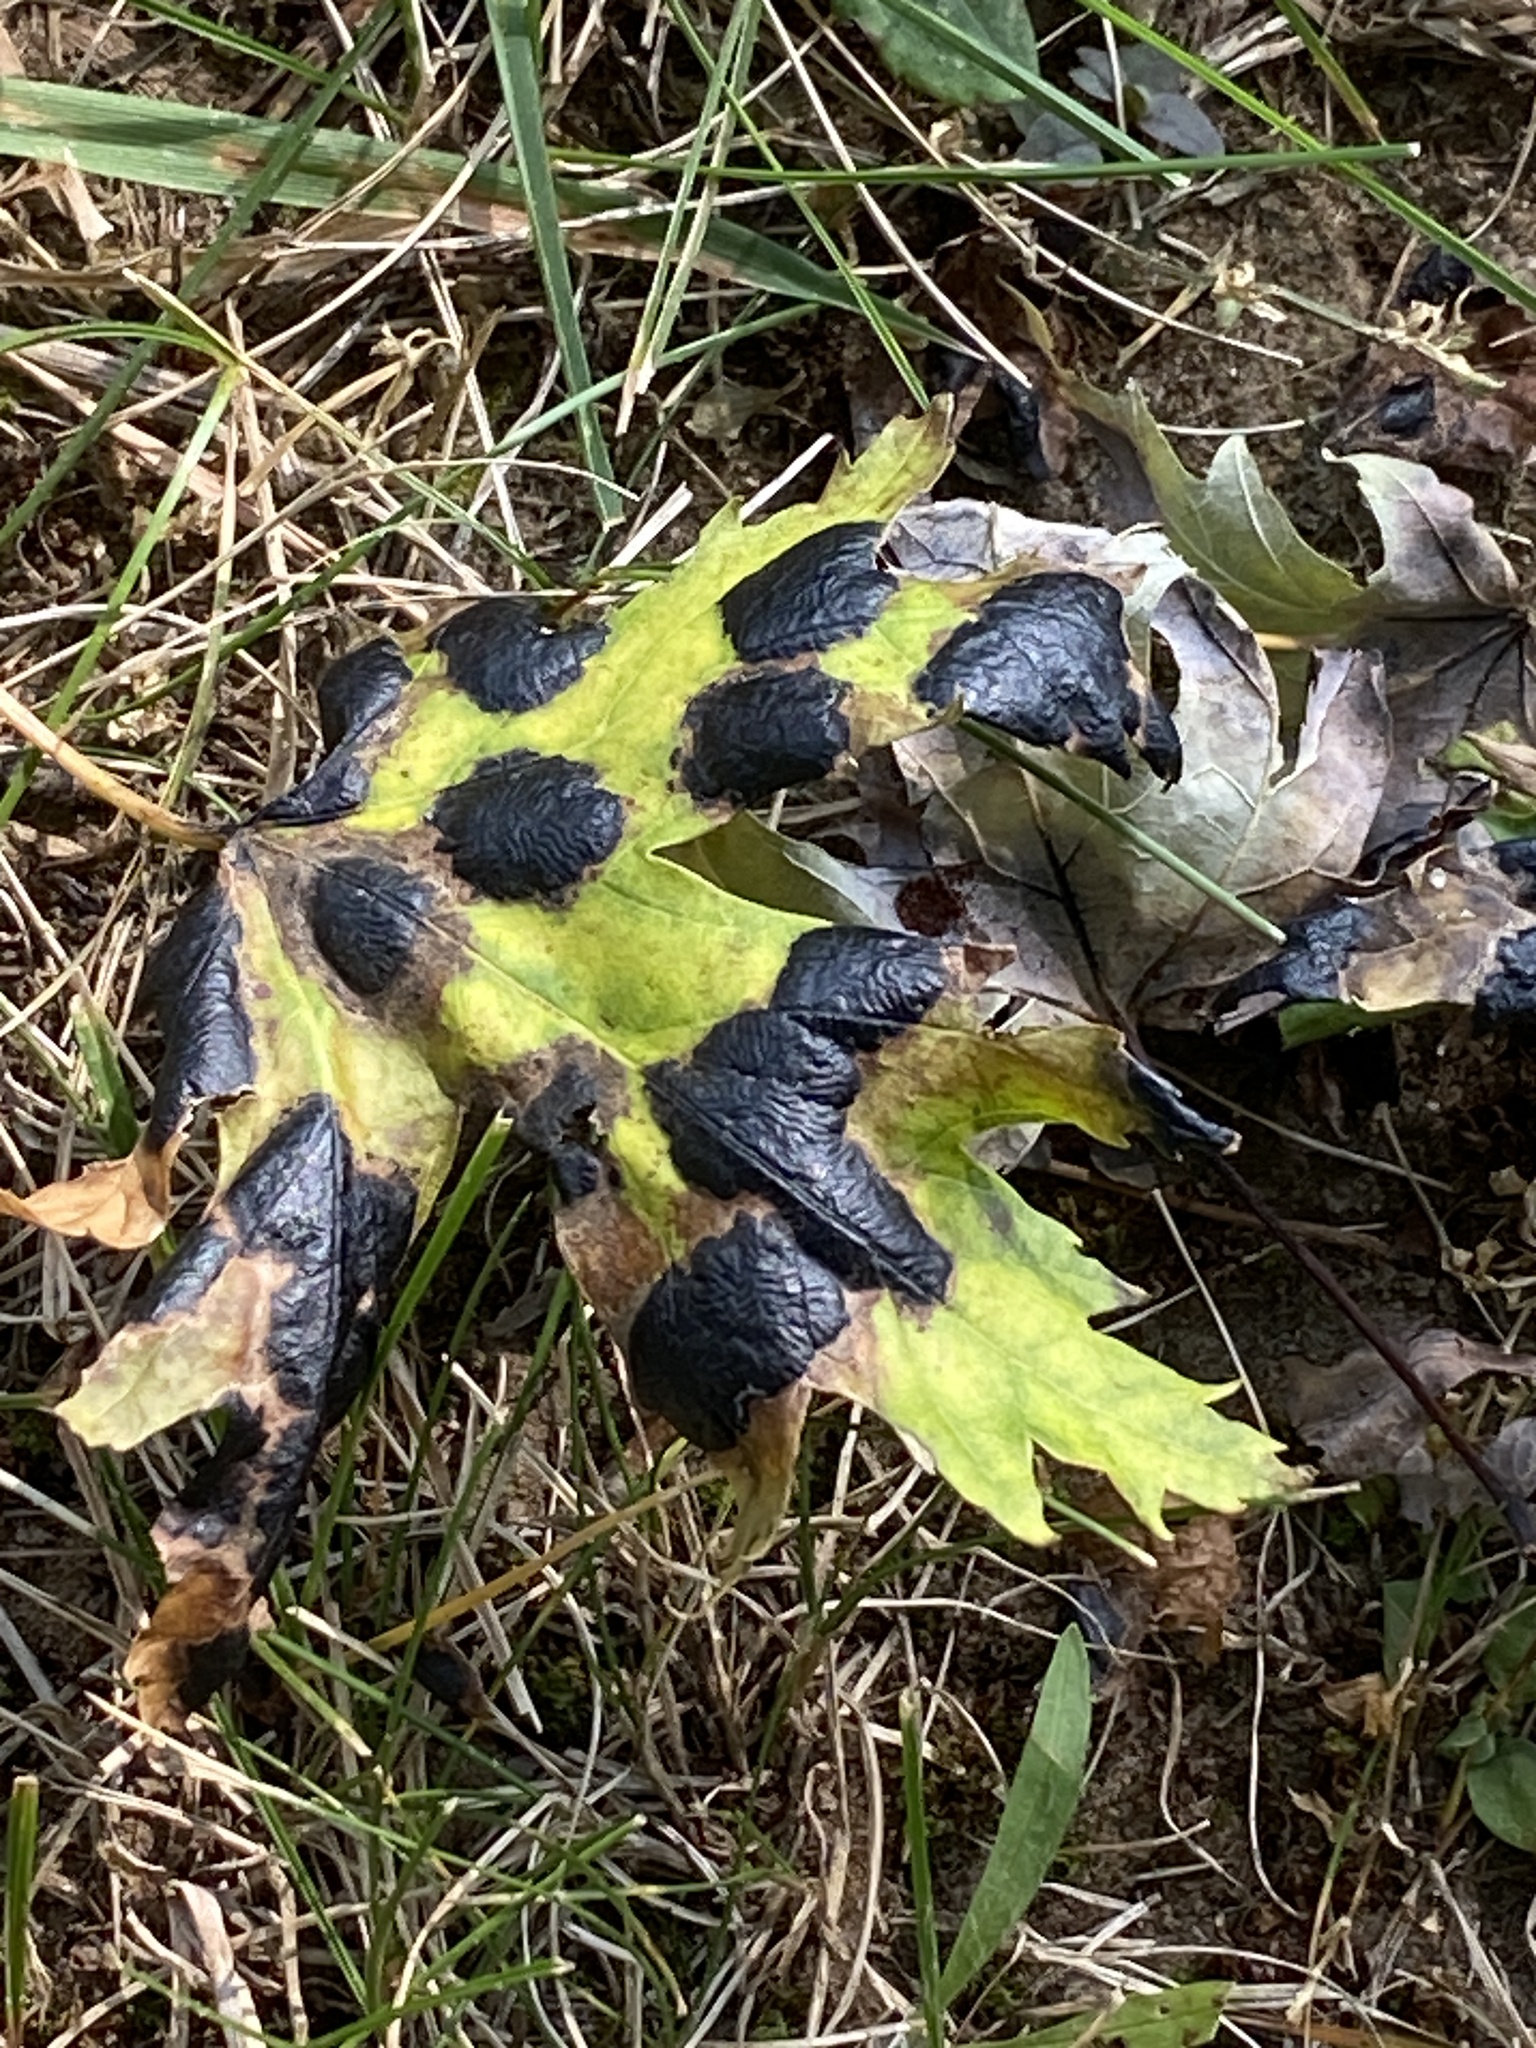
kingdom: Fungi
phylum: Ascomycota
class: Leotiomycetes
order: Rhytismatales
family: Rhytismataceae
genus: Rhytisma
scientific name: Rhytisma americanum
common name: American tar spot
